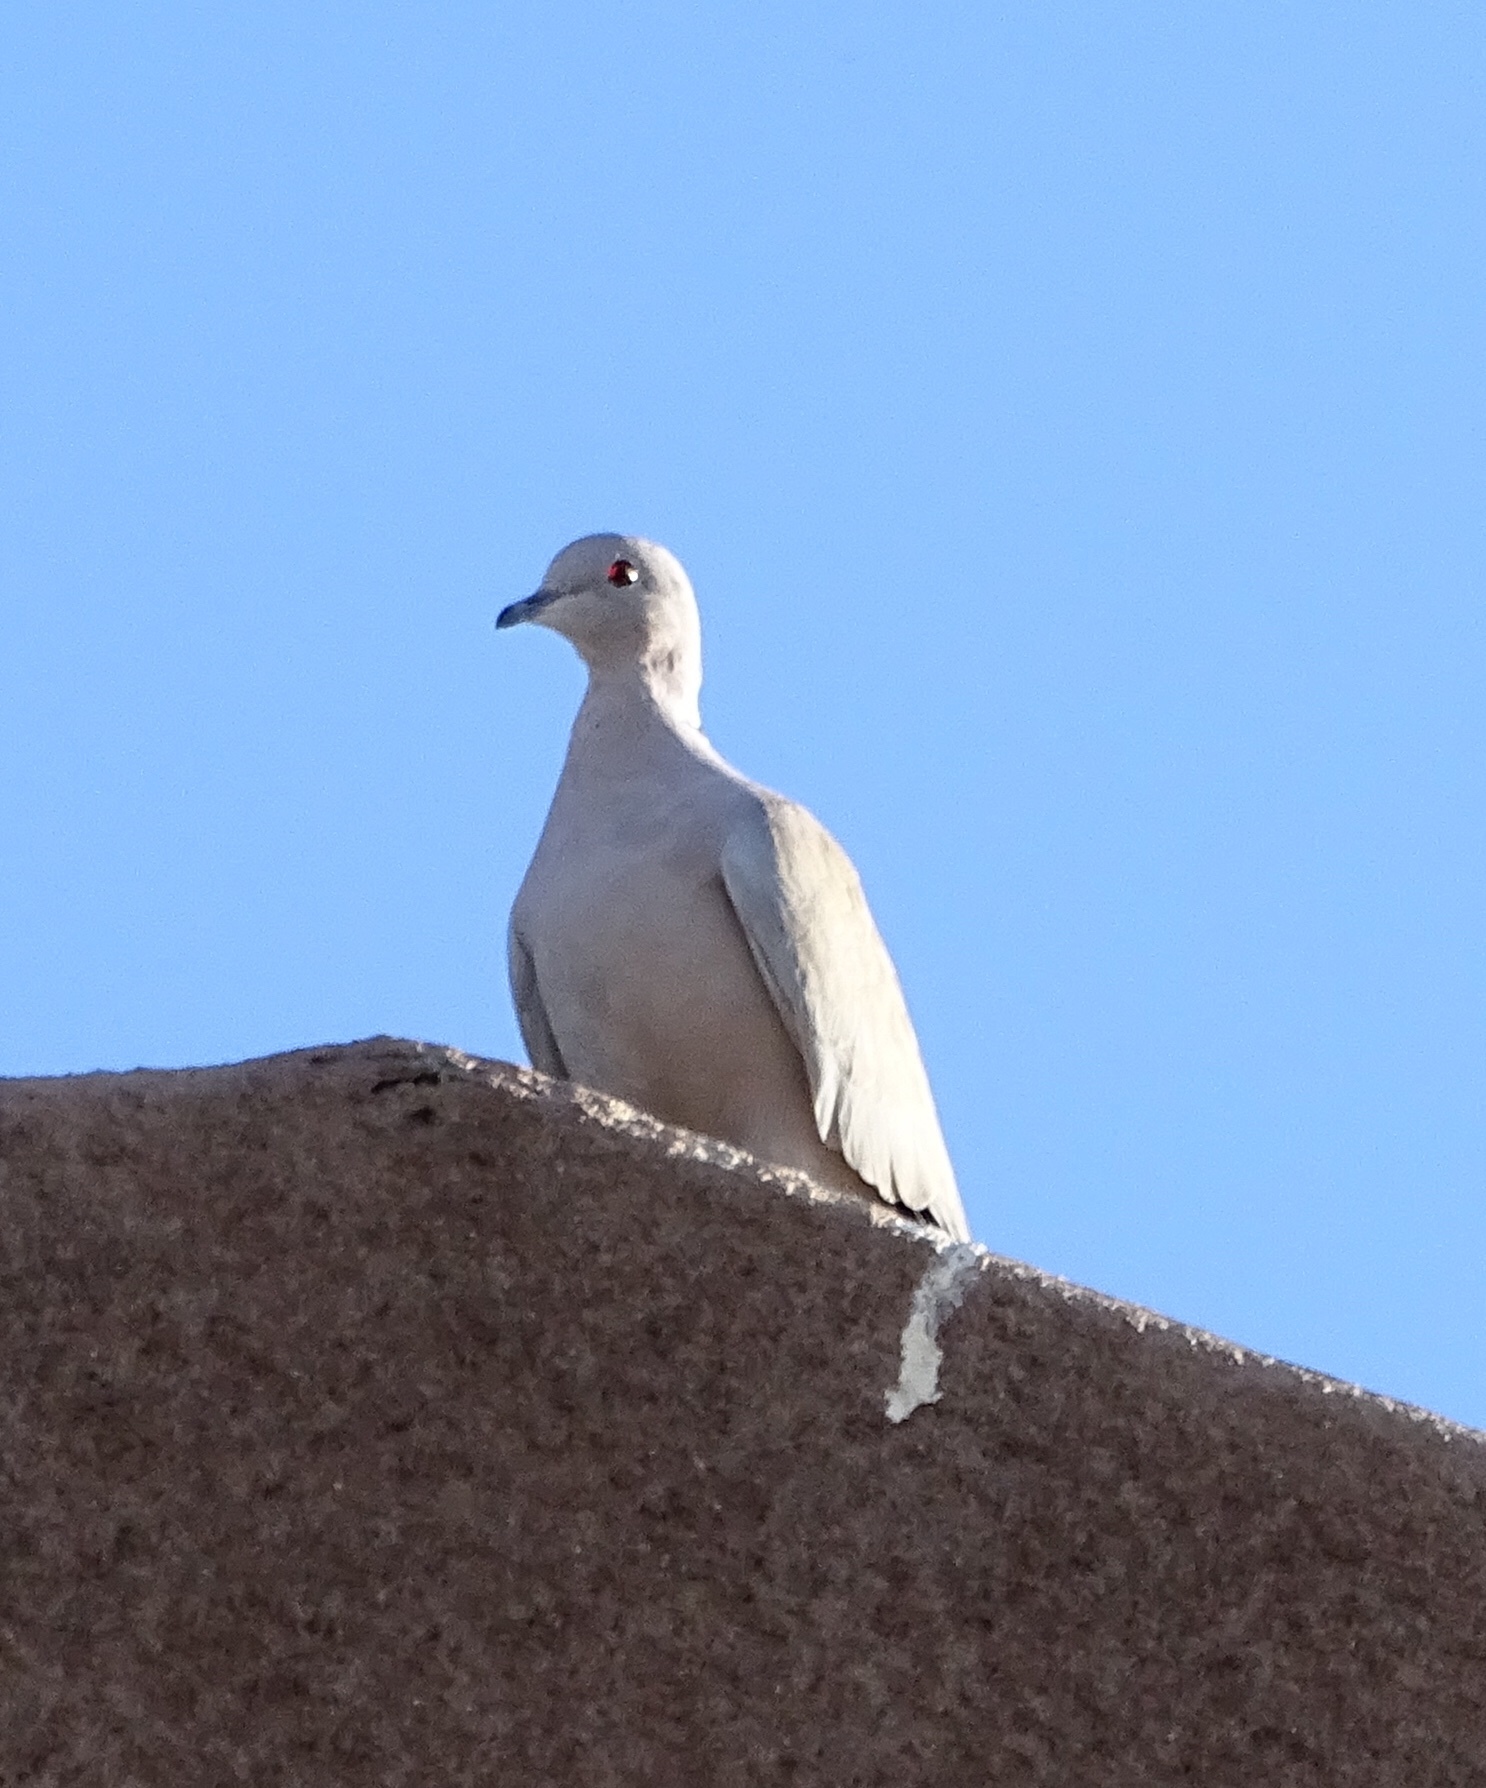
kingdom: Animalia
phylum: Chordata
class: Aves
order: Columbiformes
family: Columbidae
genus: Streptopelia
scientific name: Streptopelia decaocto
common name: Eurasian collared dove
